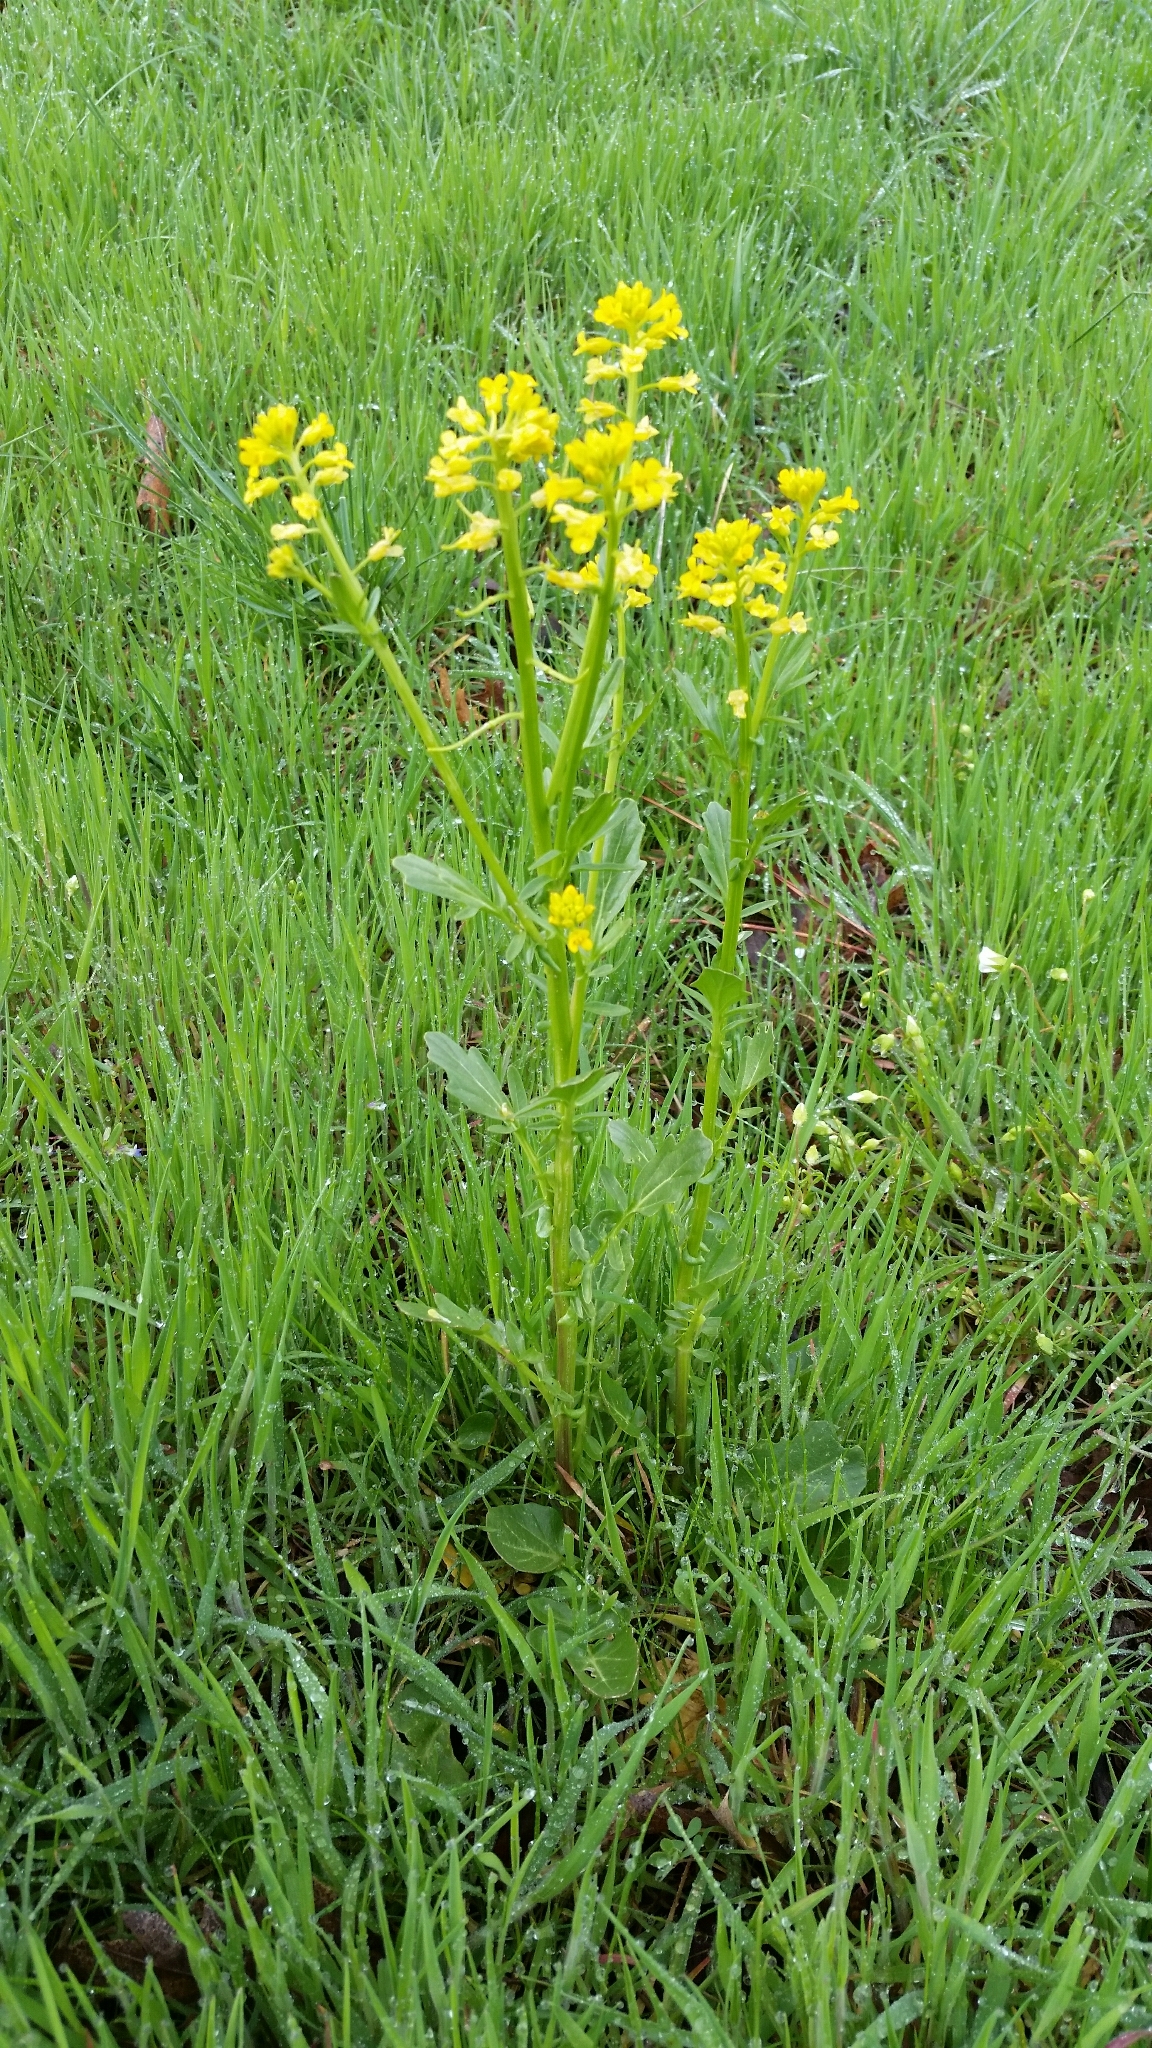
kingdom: Plantae
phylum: Tracheophyta
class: Magnoliopsida
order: Brassicales
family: Brassicaceae
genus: Barbarea
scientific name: Barbarea orthoceras
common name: American wintercress
